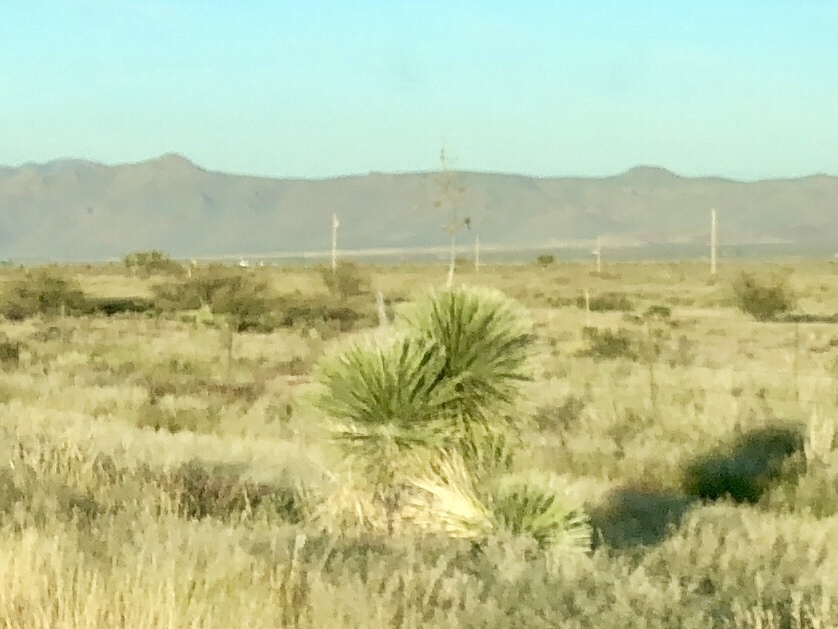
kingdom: Plantae
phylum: Tracheophyta
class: Liliopsida
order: Asparagales
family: Asparagaceae
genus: Yucca
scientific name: Yucca elata
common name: Palmella
